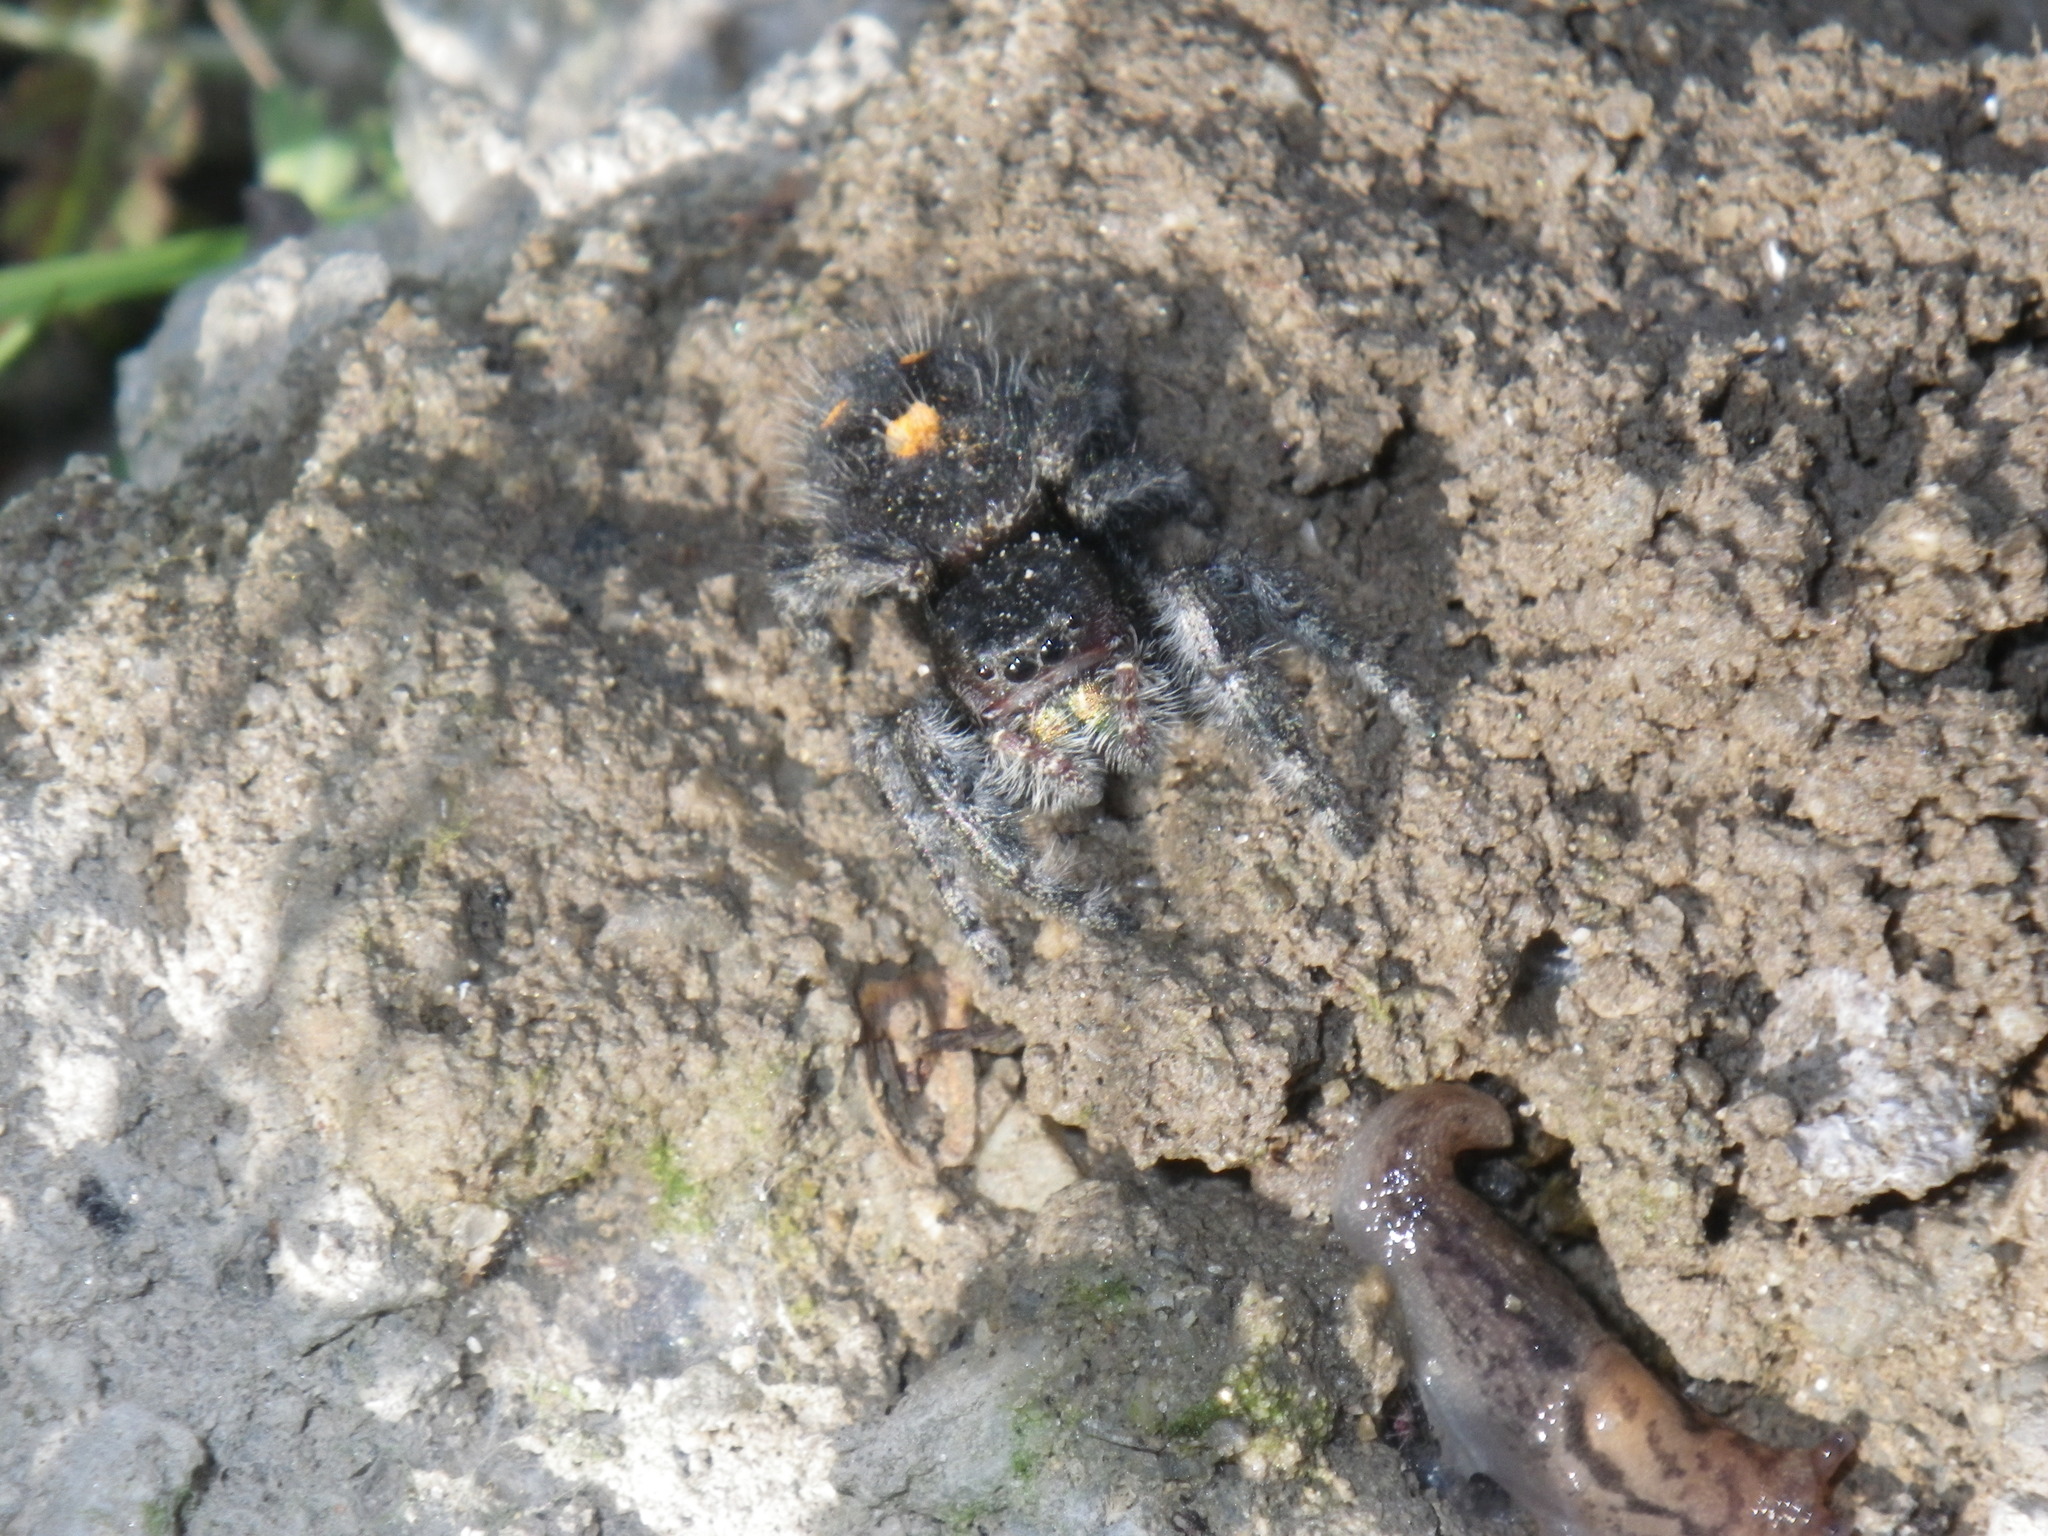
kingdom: Animalia
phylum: Arthropoda
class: Arachnida
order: Araneae
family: Salticidae
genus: Phidippus
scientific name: Phidippus audax
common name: Bold jumper
